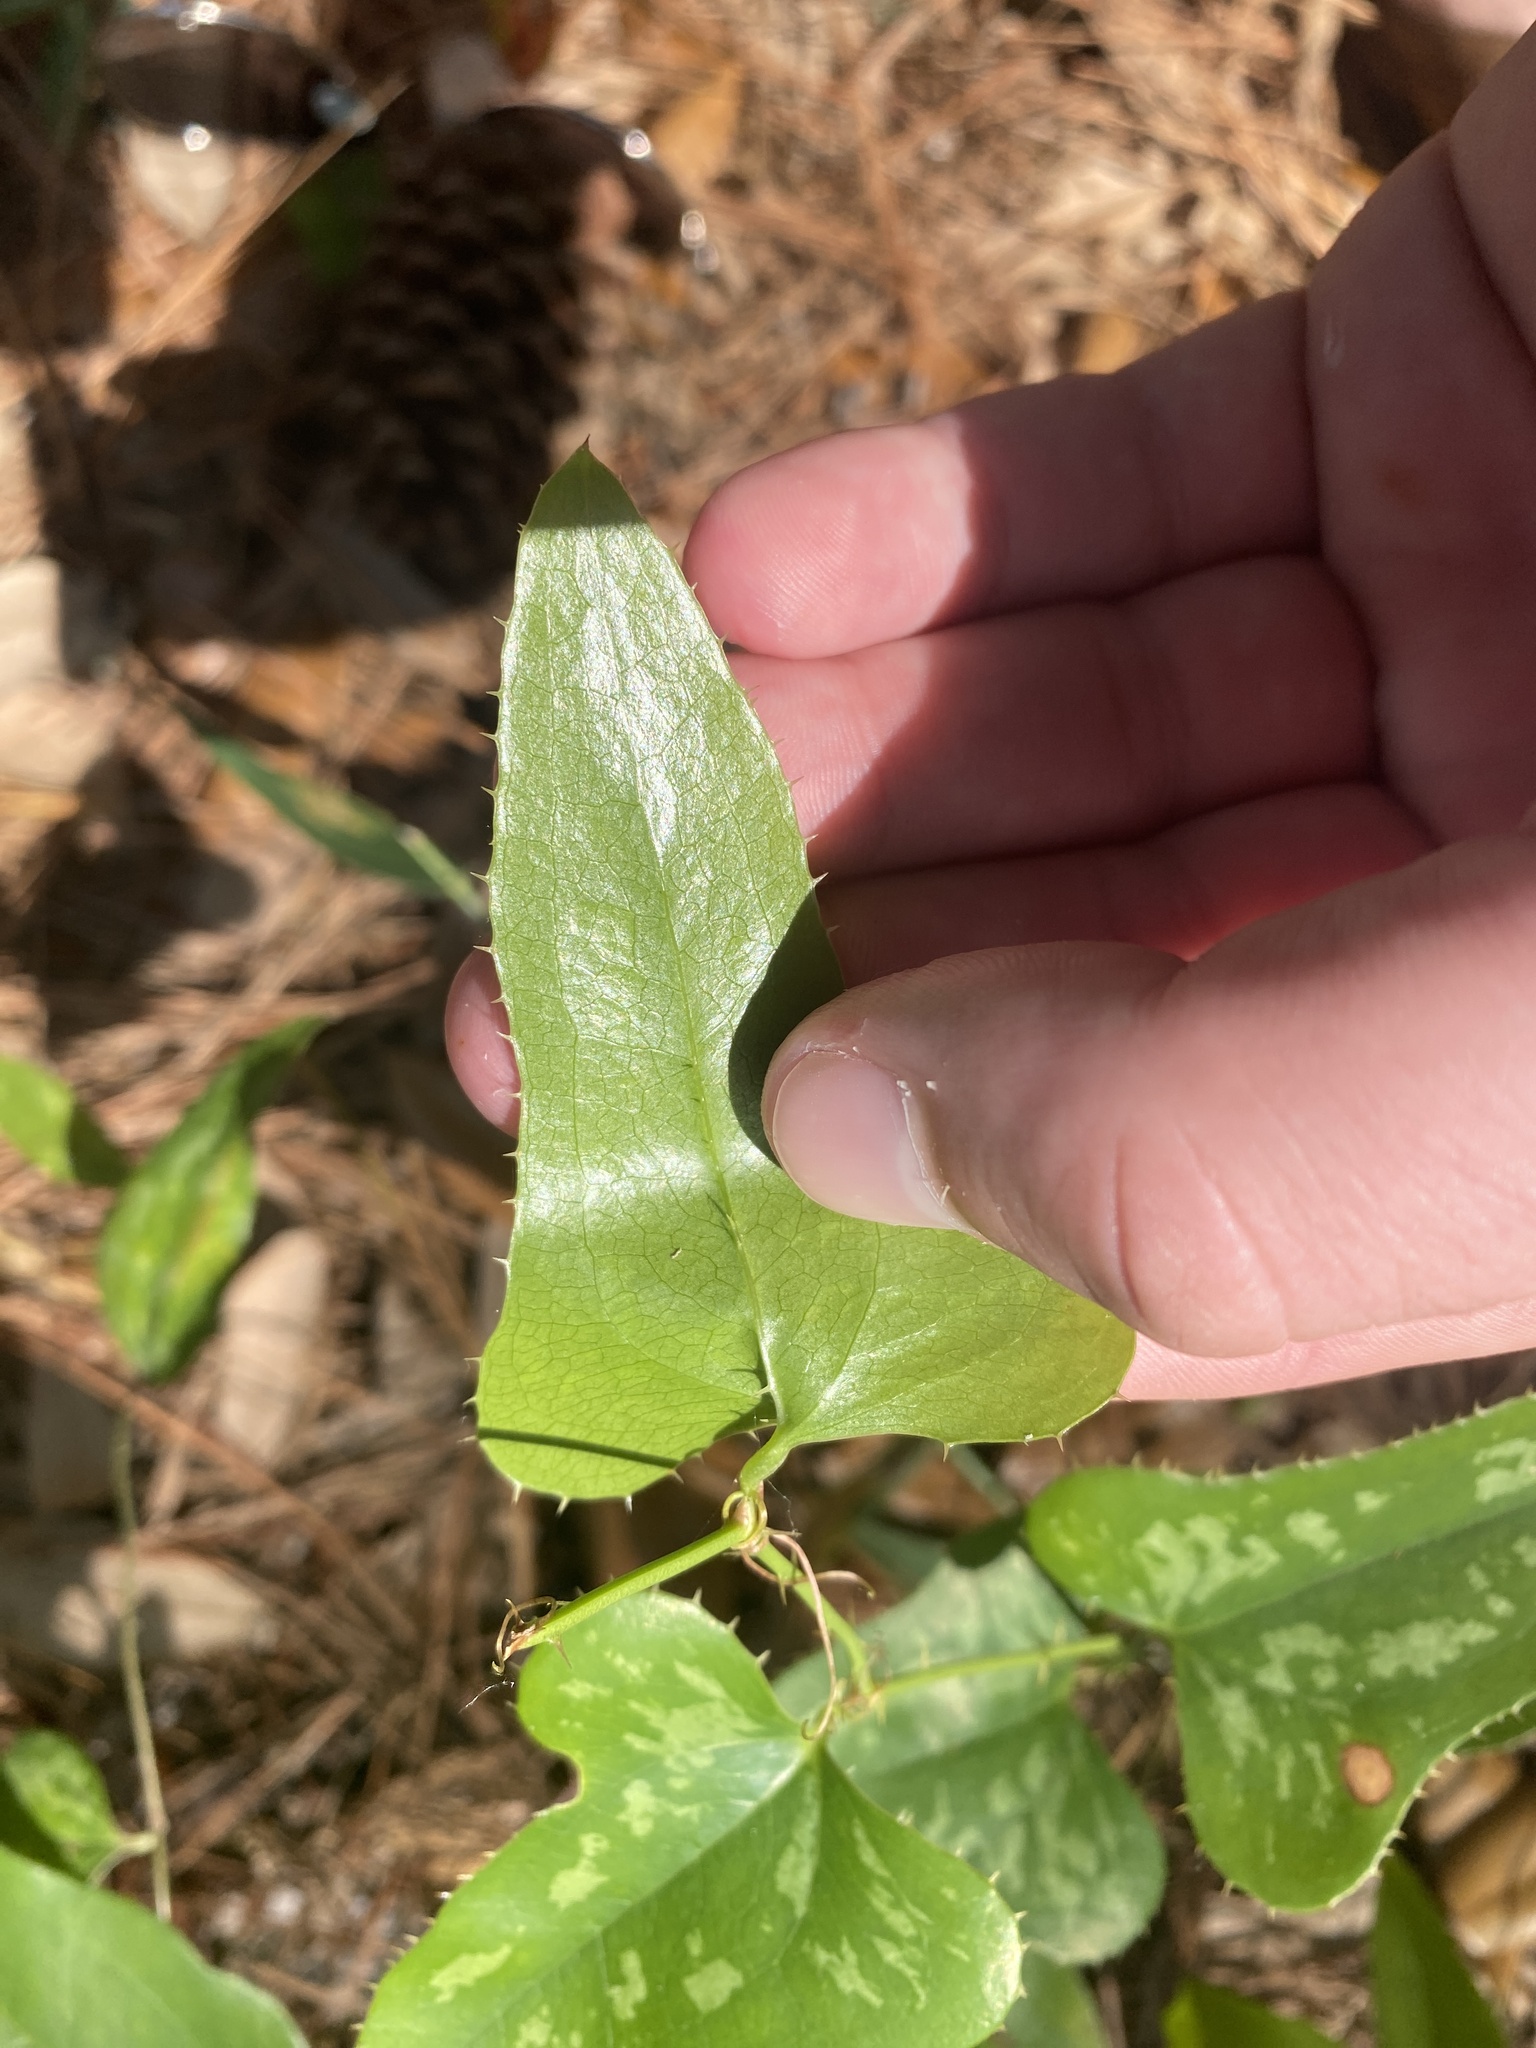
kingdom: Plantae
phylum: Tracheophyta
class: Liliopsida
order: Liliales
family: Smilacaceae
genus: Smilax
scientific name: Smilax bona-nox
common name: Catbrier
